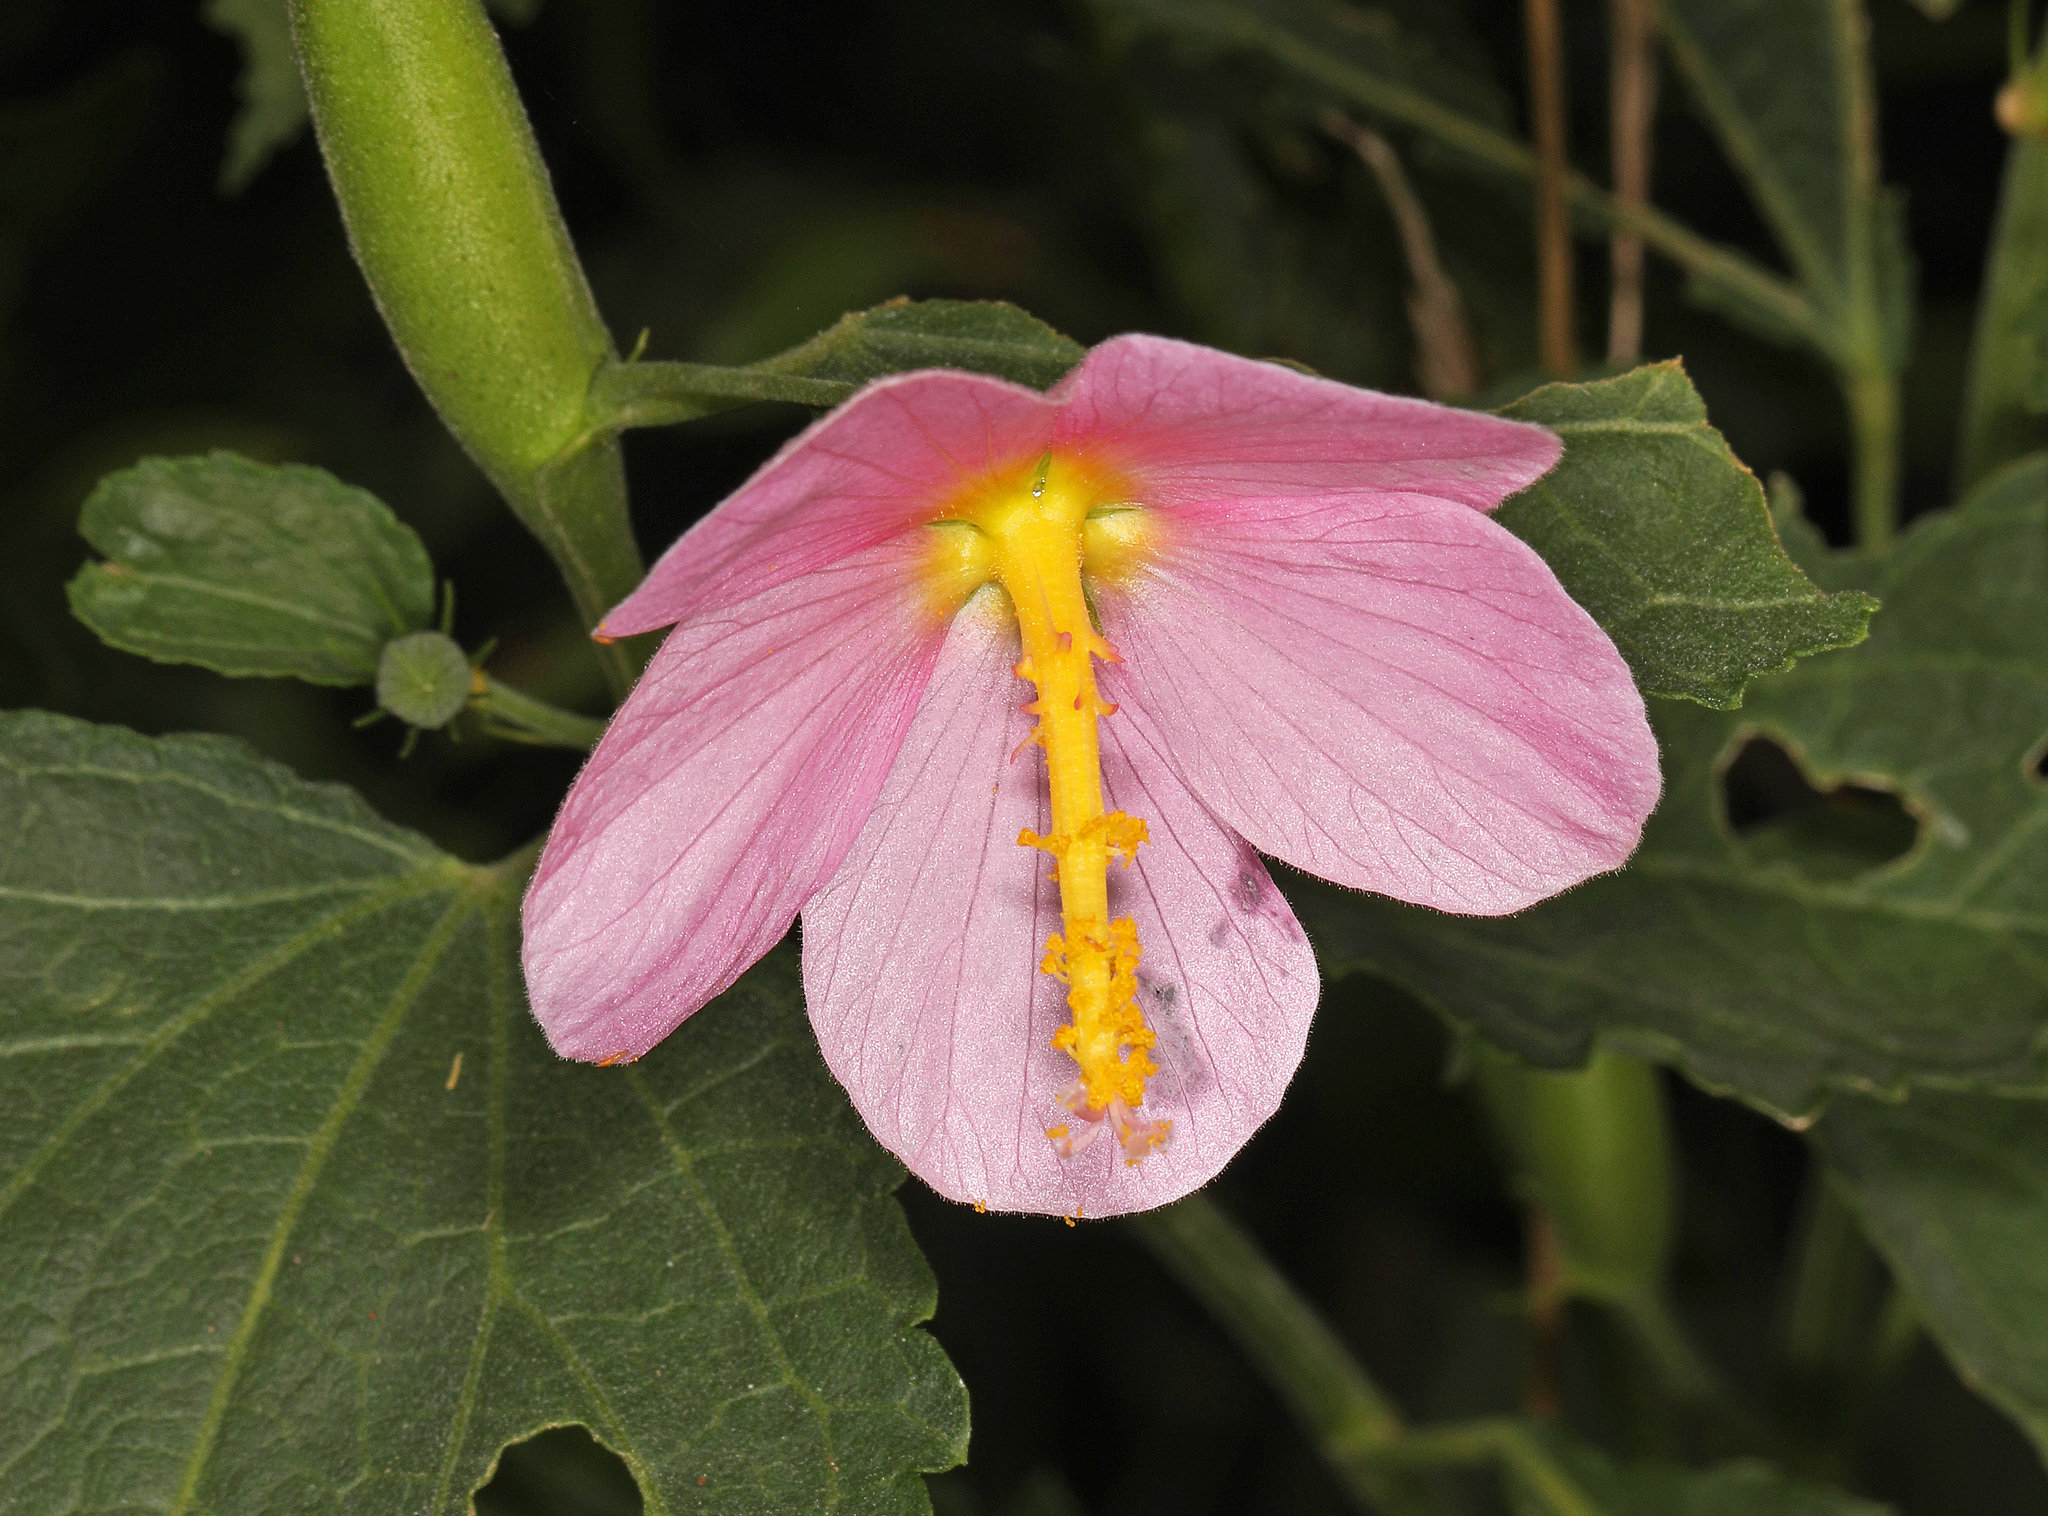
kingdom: Plantae
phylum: Tracheophyta
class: Magnoliopsida
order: Malvales
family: Malvaceae
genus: Kosteletzkya
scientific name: Kosteletzkya pentacarpos
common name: Virginia saltmarsh mallow
